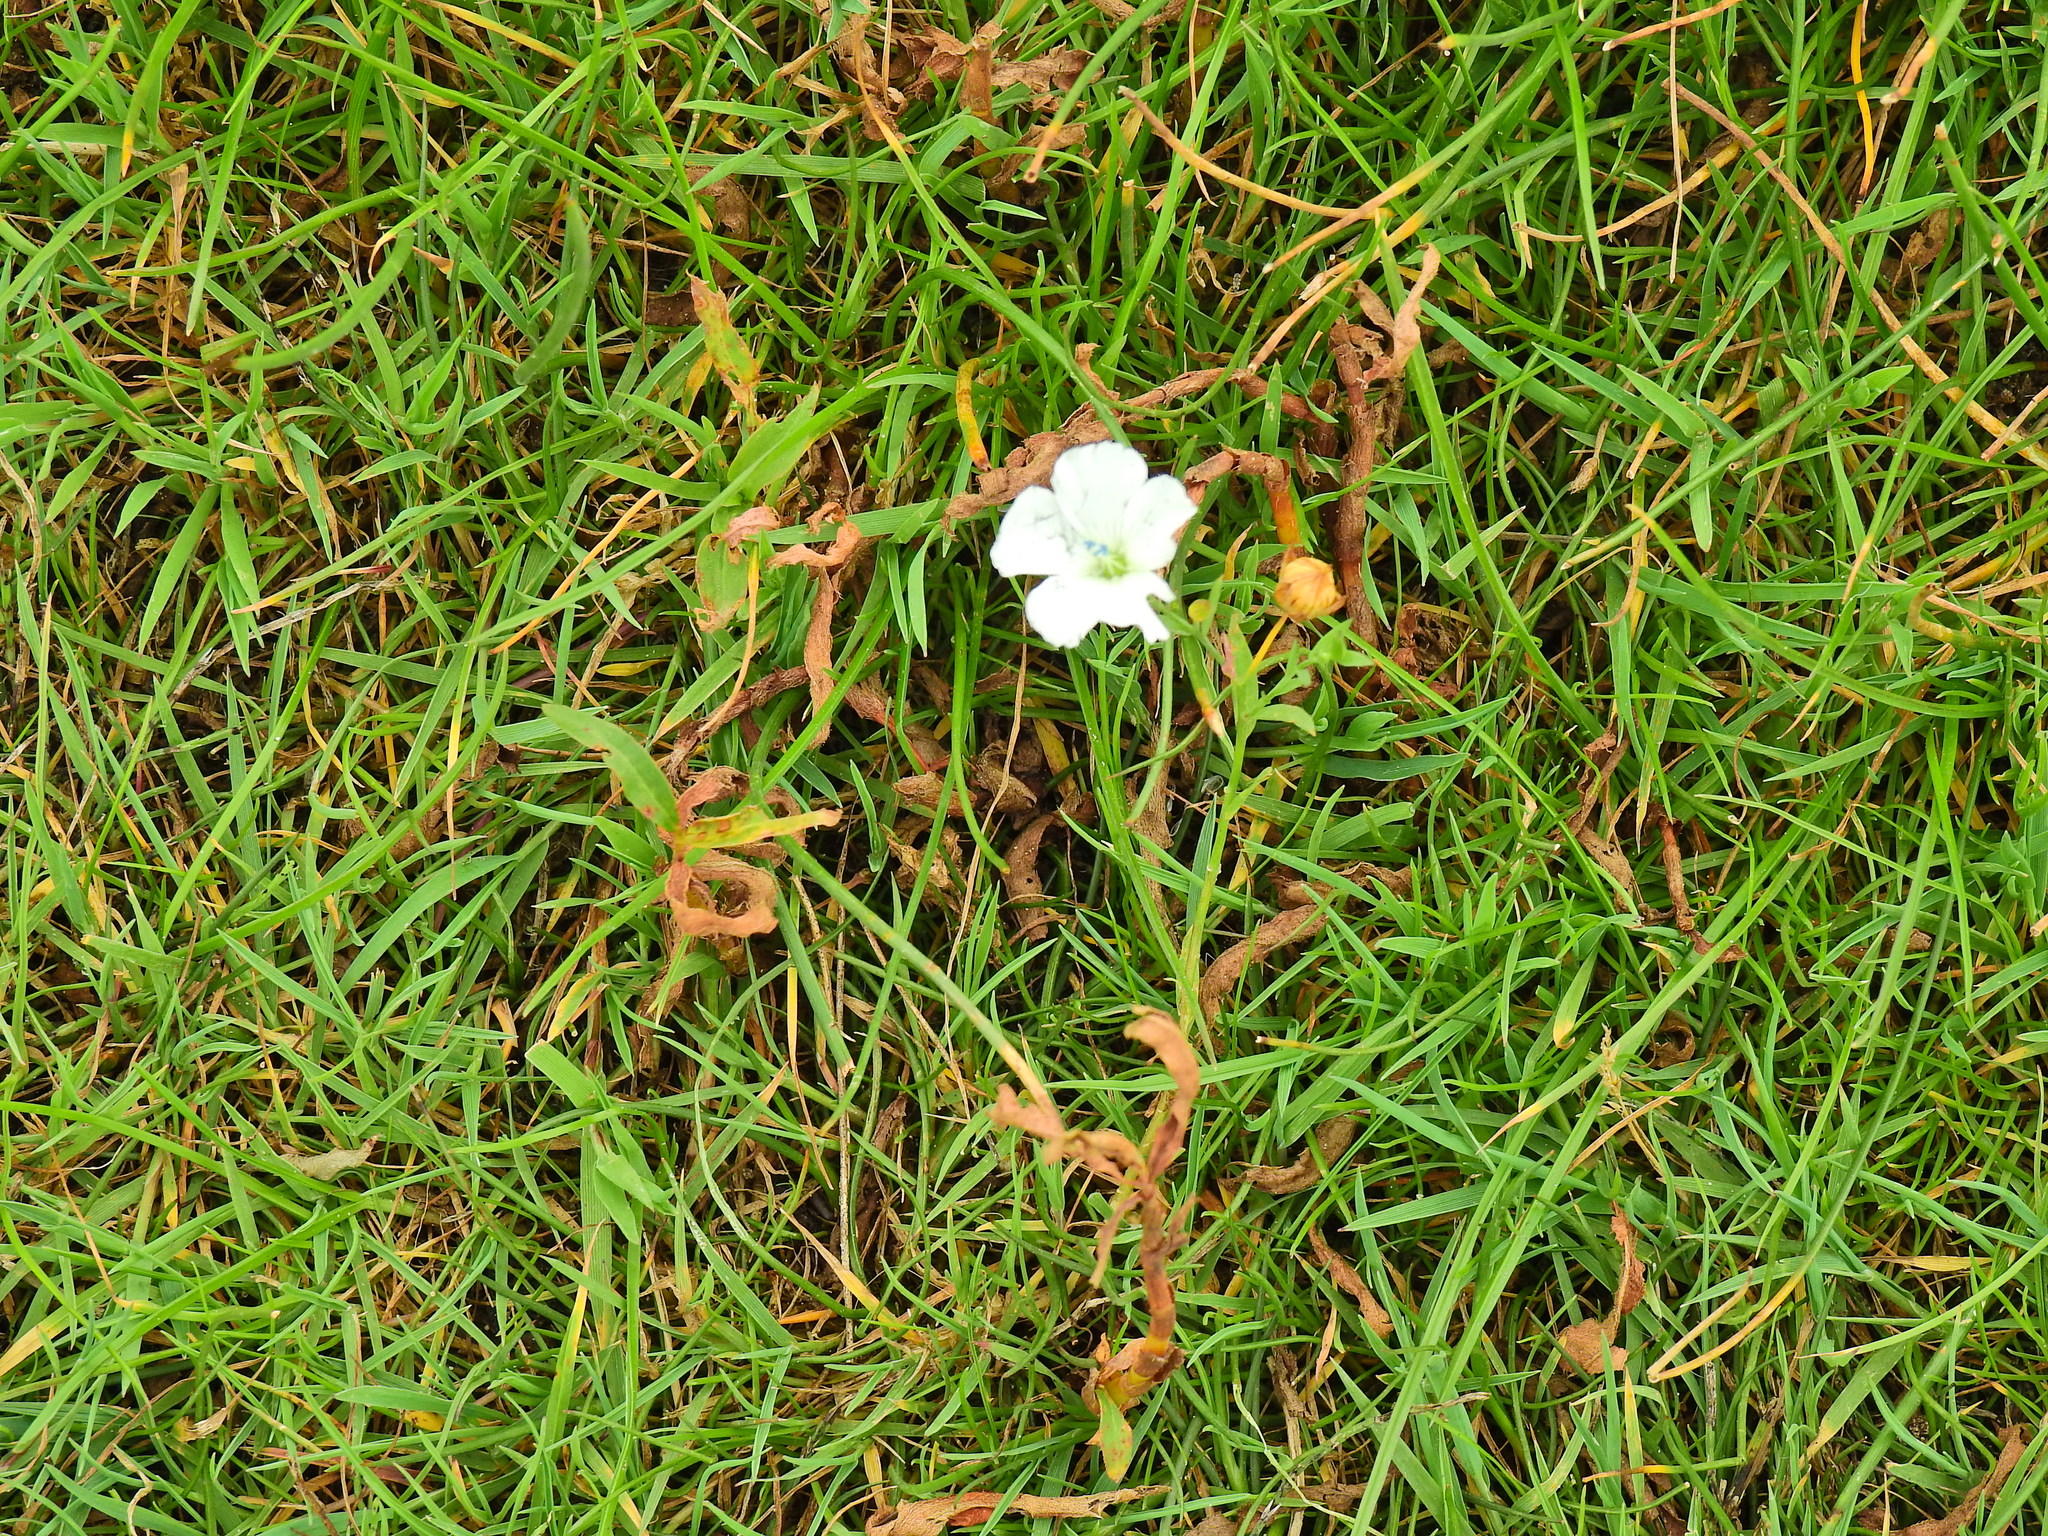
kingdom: Plantae
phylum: Tracheophyta
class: Magnoliopsida
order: Caryophyllales
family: Caryophyllaceae
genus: Silene
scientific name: Silene uniflora
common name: Sea campion
